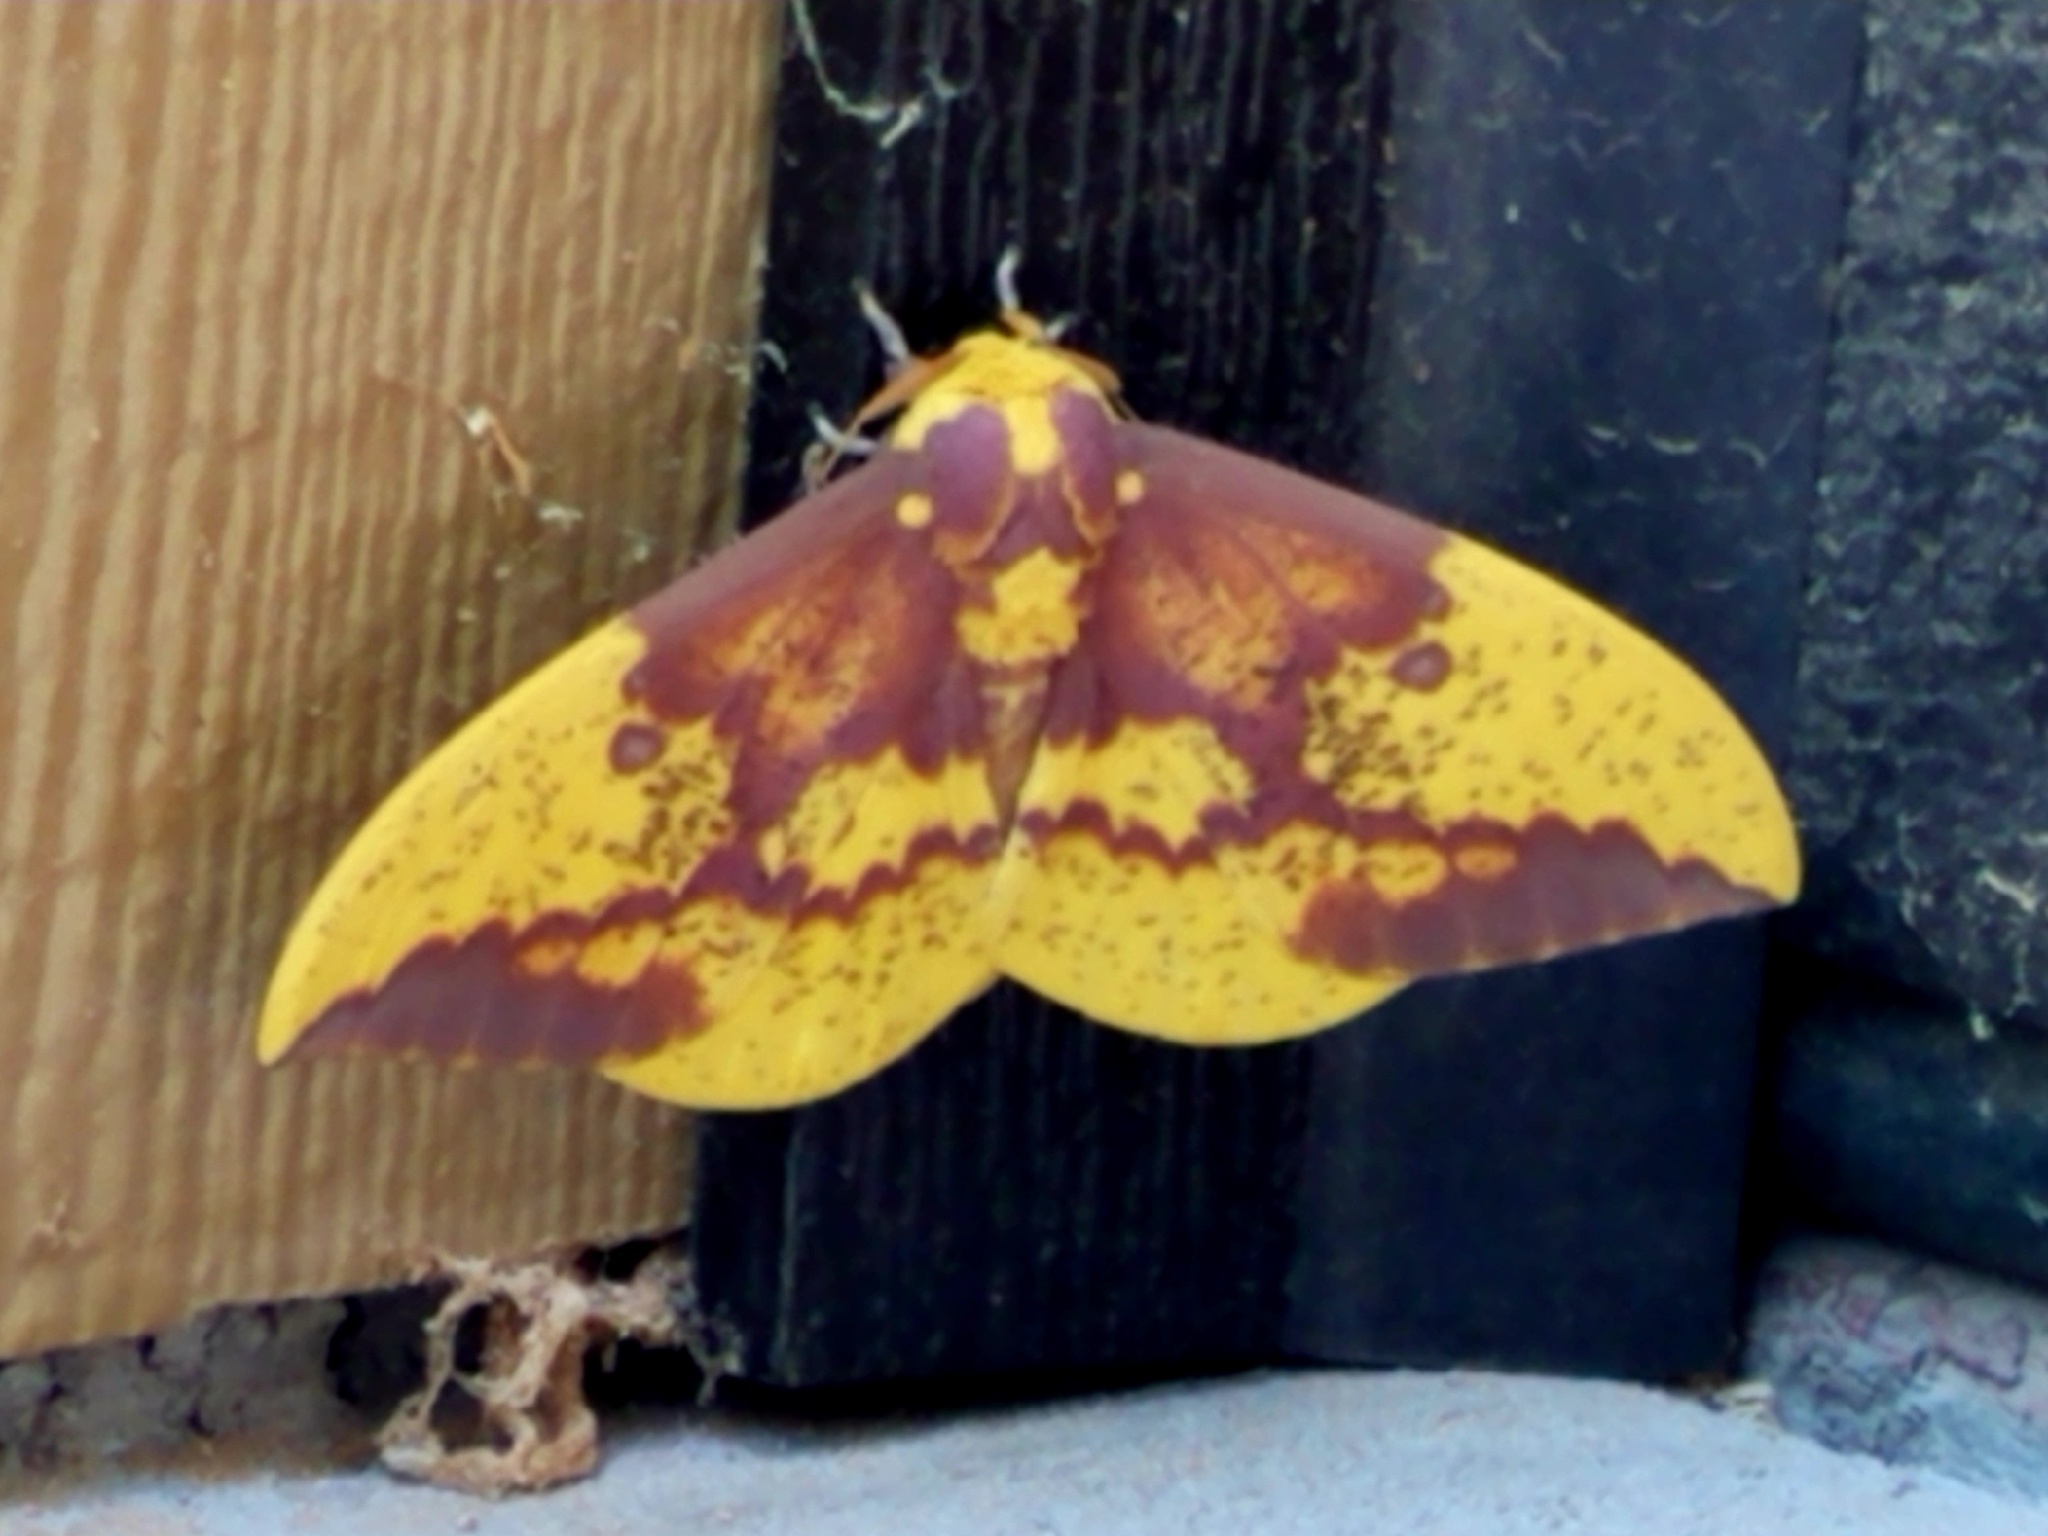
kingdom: Animalia
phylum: Arthropoda
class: Insecta
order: Lepidoptera
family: Saturniidae
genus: Eacles
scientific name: Eacles imperialis
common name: Imperial moth
